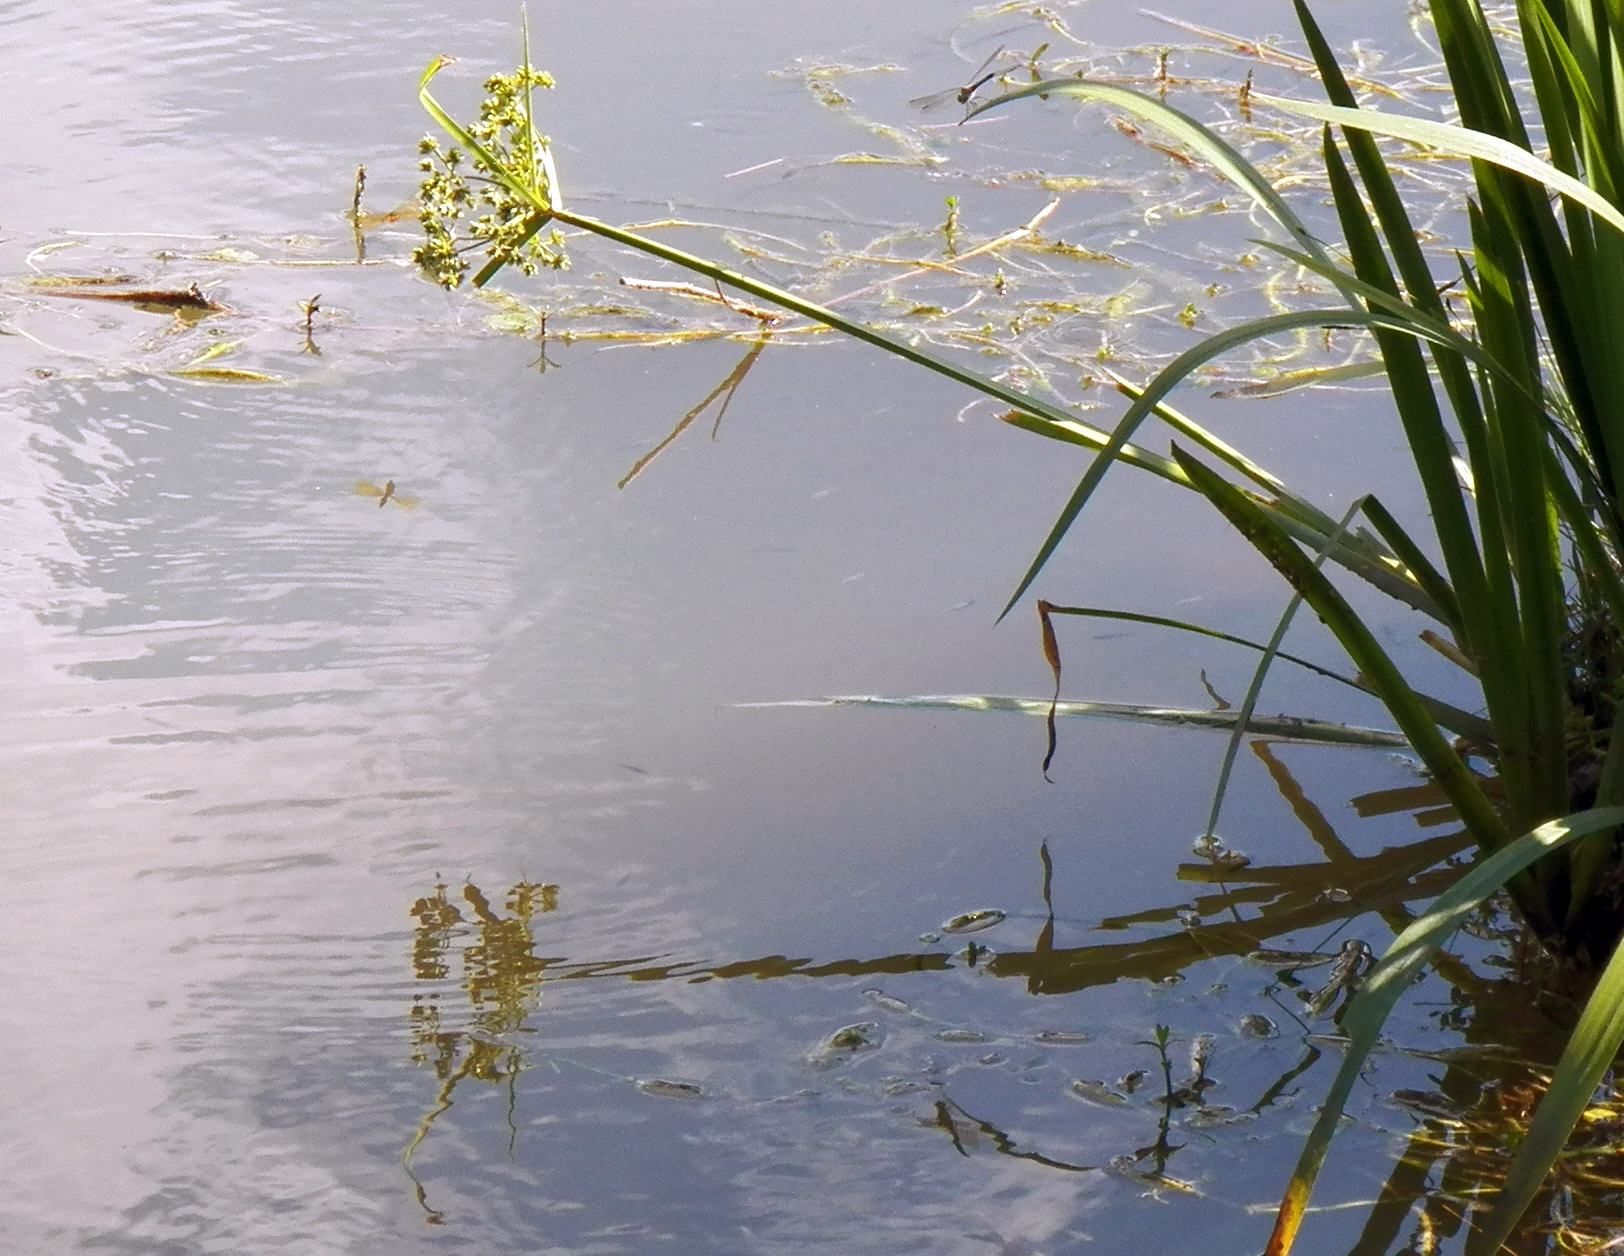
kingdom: Plantae
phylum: Tracheophyta
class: Liliopsida
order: Poales
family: Cyperaceae
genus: Cyperus
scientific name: Cyperus virens
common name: Green flatsedge
